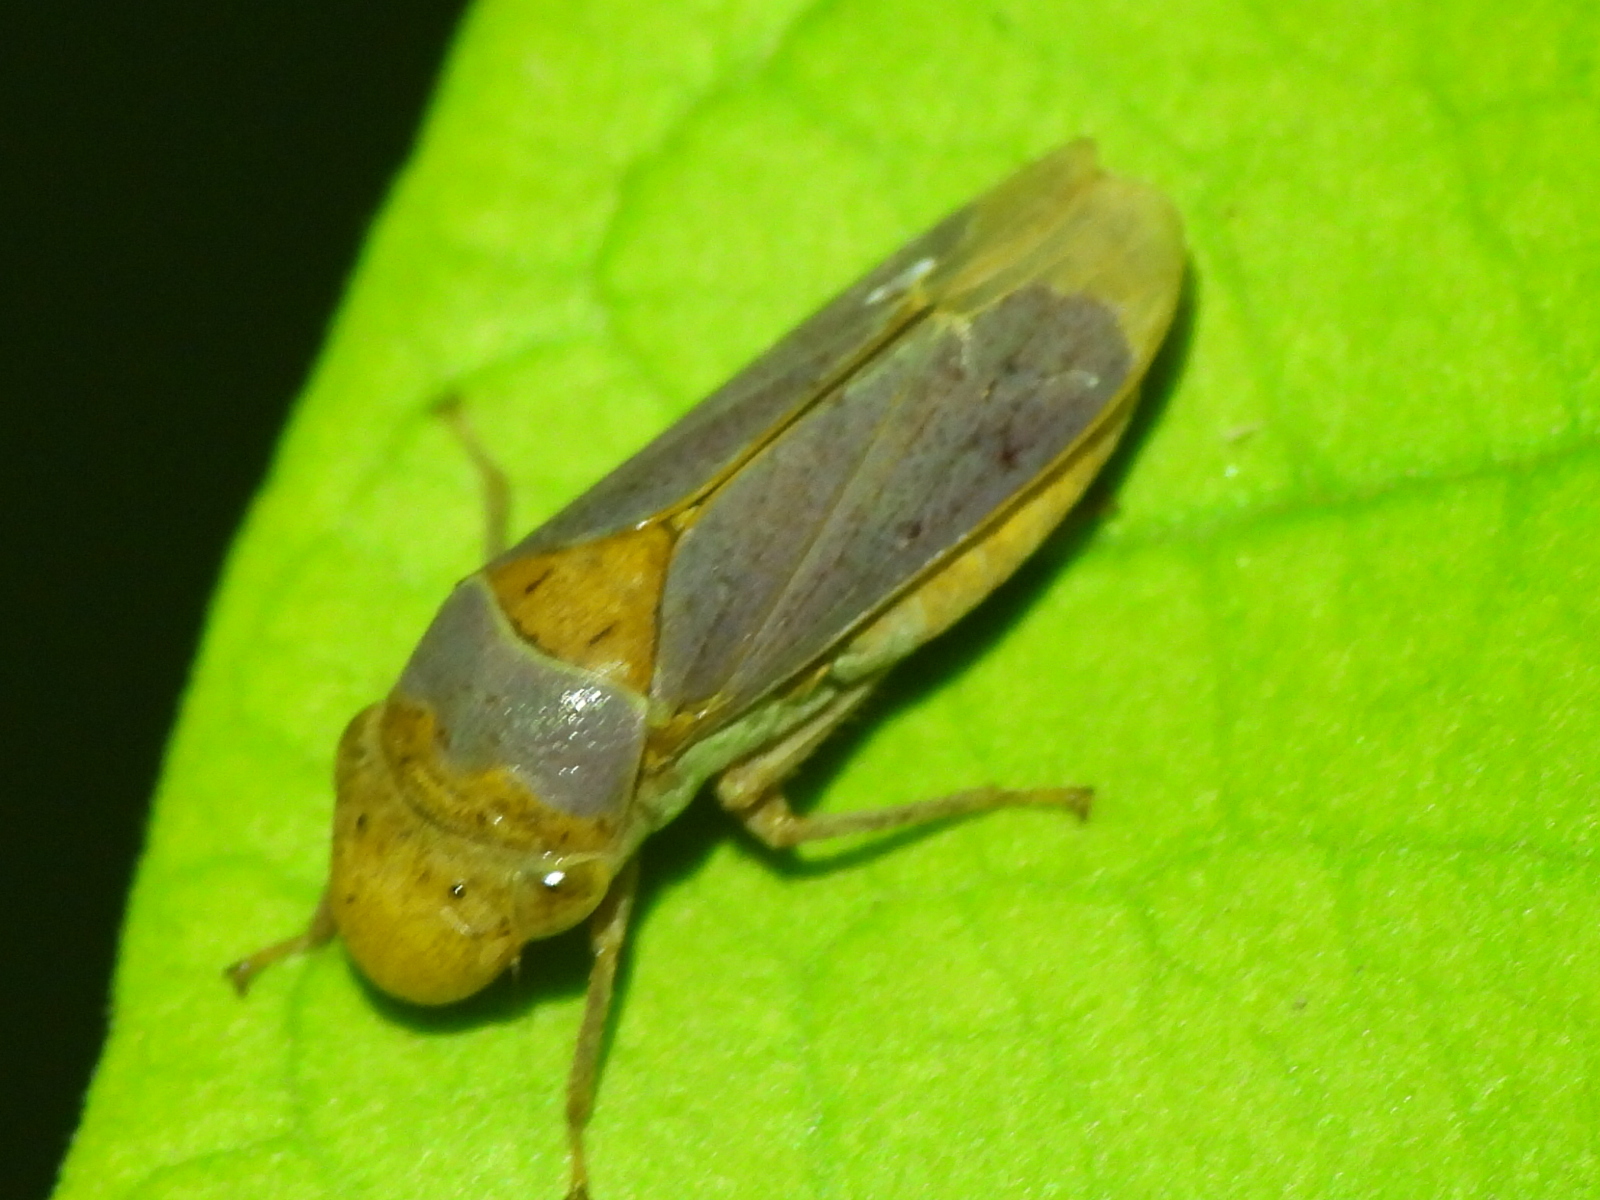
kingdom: Animalia
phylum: Arthropoda
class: Insecta
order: Hemiptera
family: Cicadellidae
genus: Oncometopia
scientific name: Oncometopia hamiltoni
